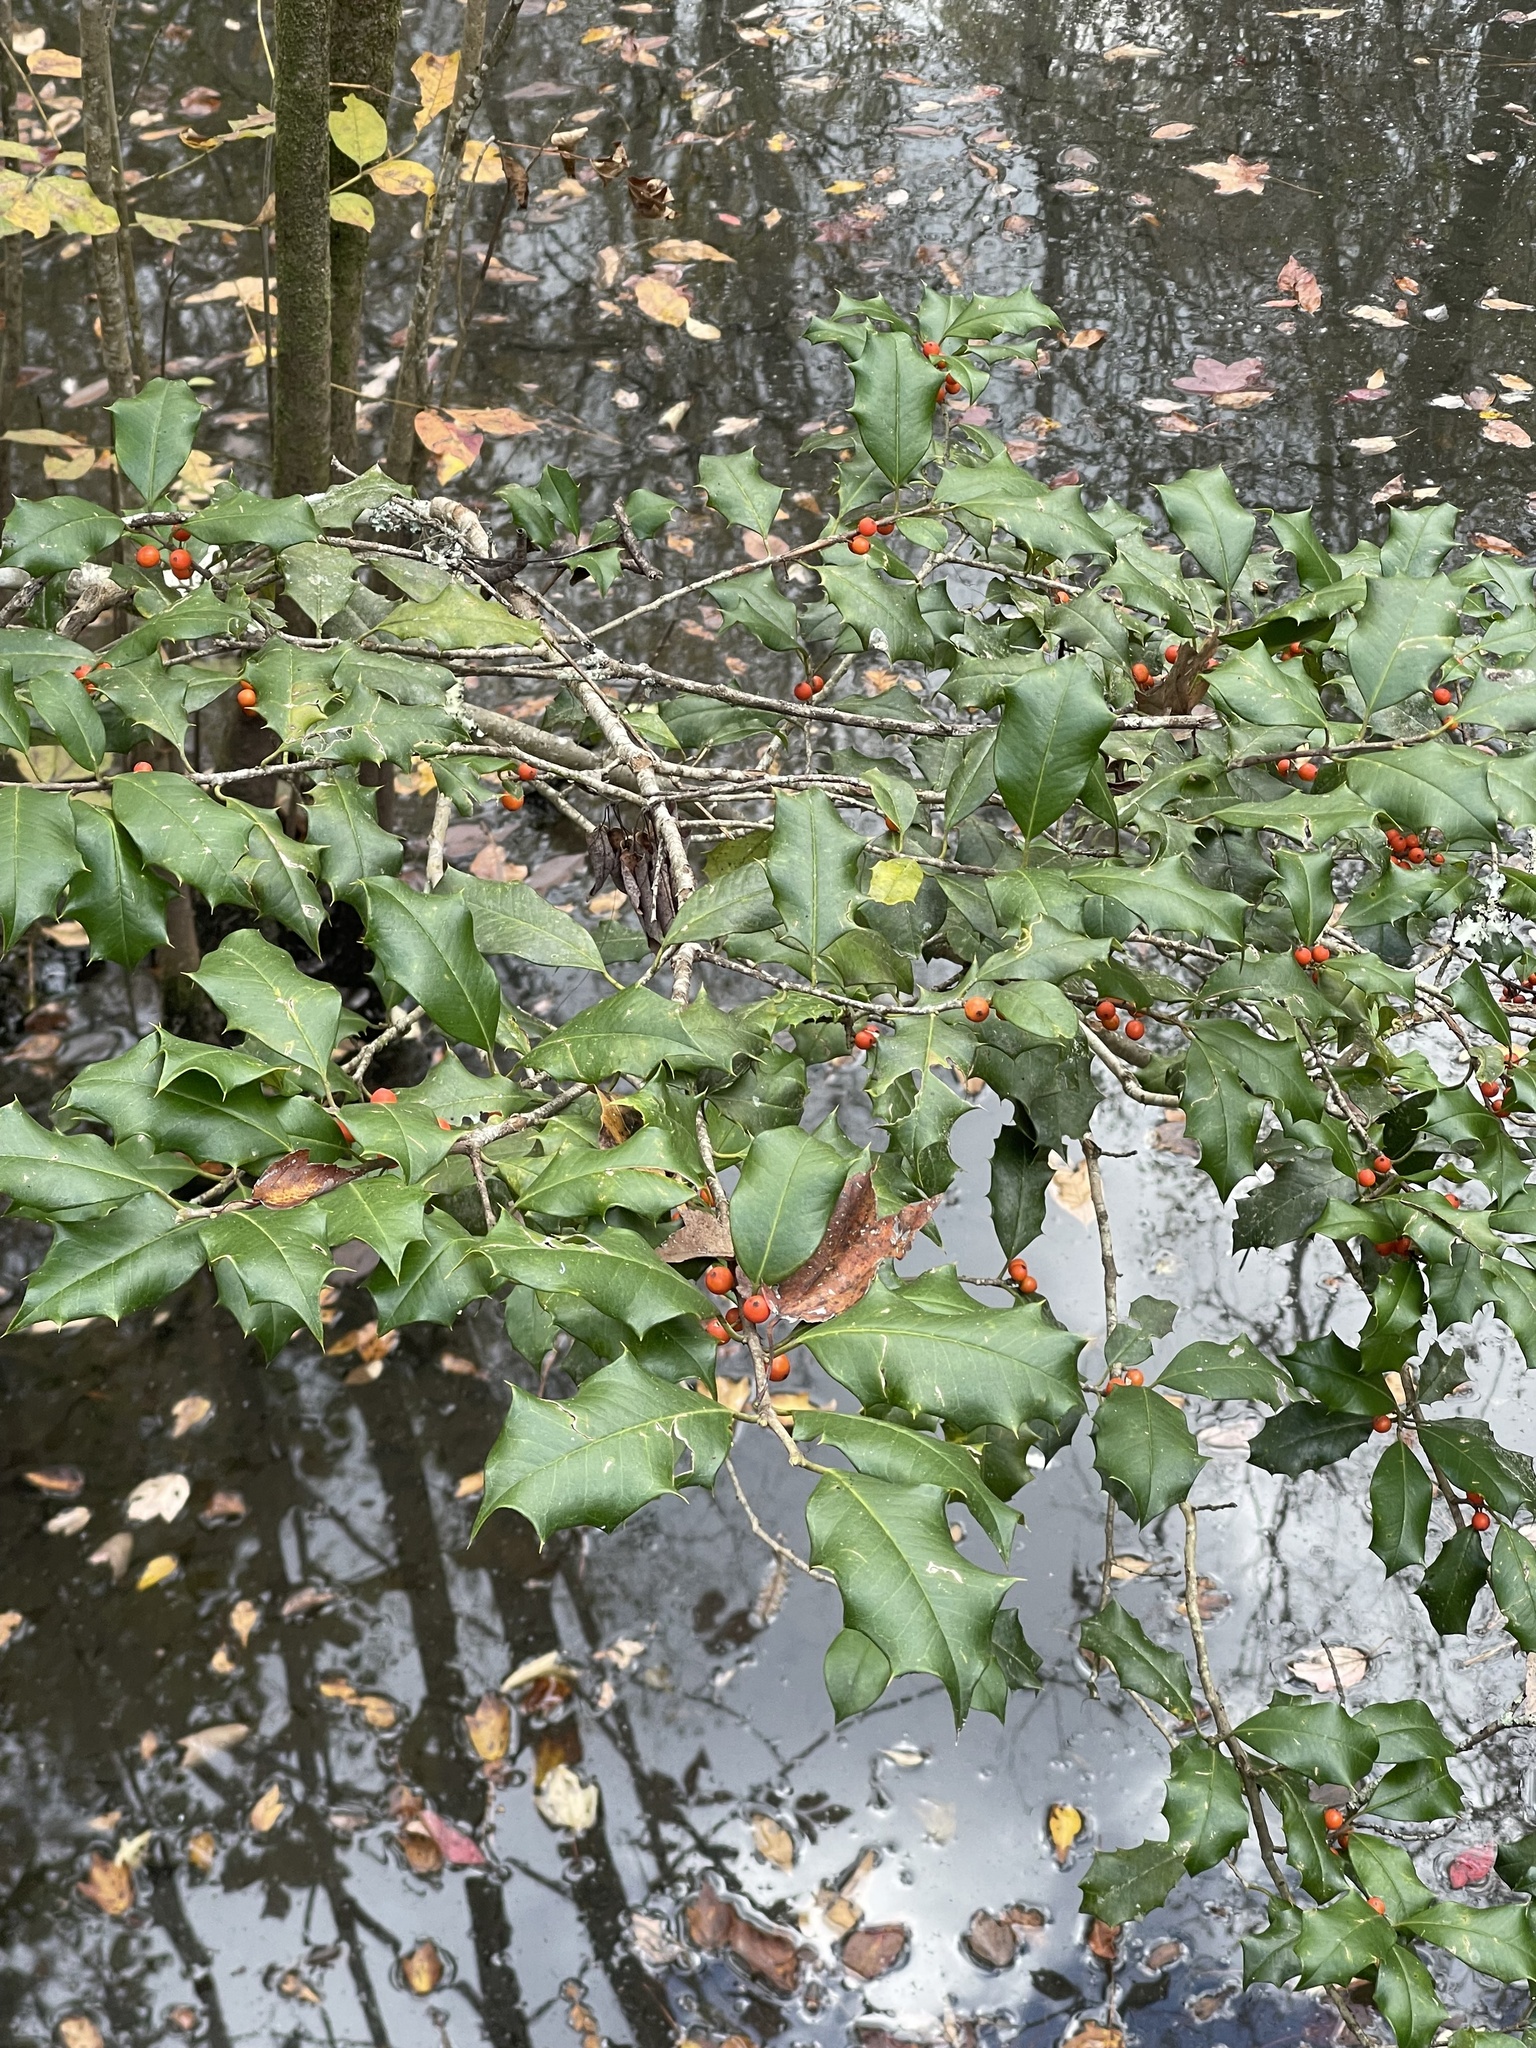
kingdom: Plantae
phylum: Tracheophyta
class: Magnoliopsida
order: Aquifoliales
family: Aquifoliaceae
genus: Ilex
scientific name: Ilex opaca
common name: American holly
